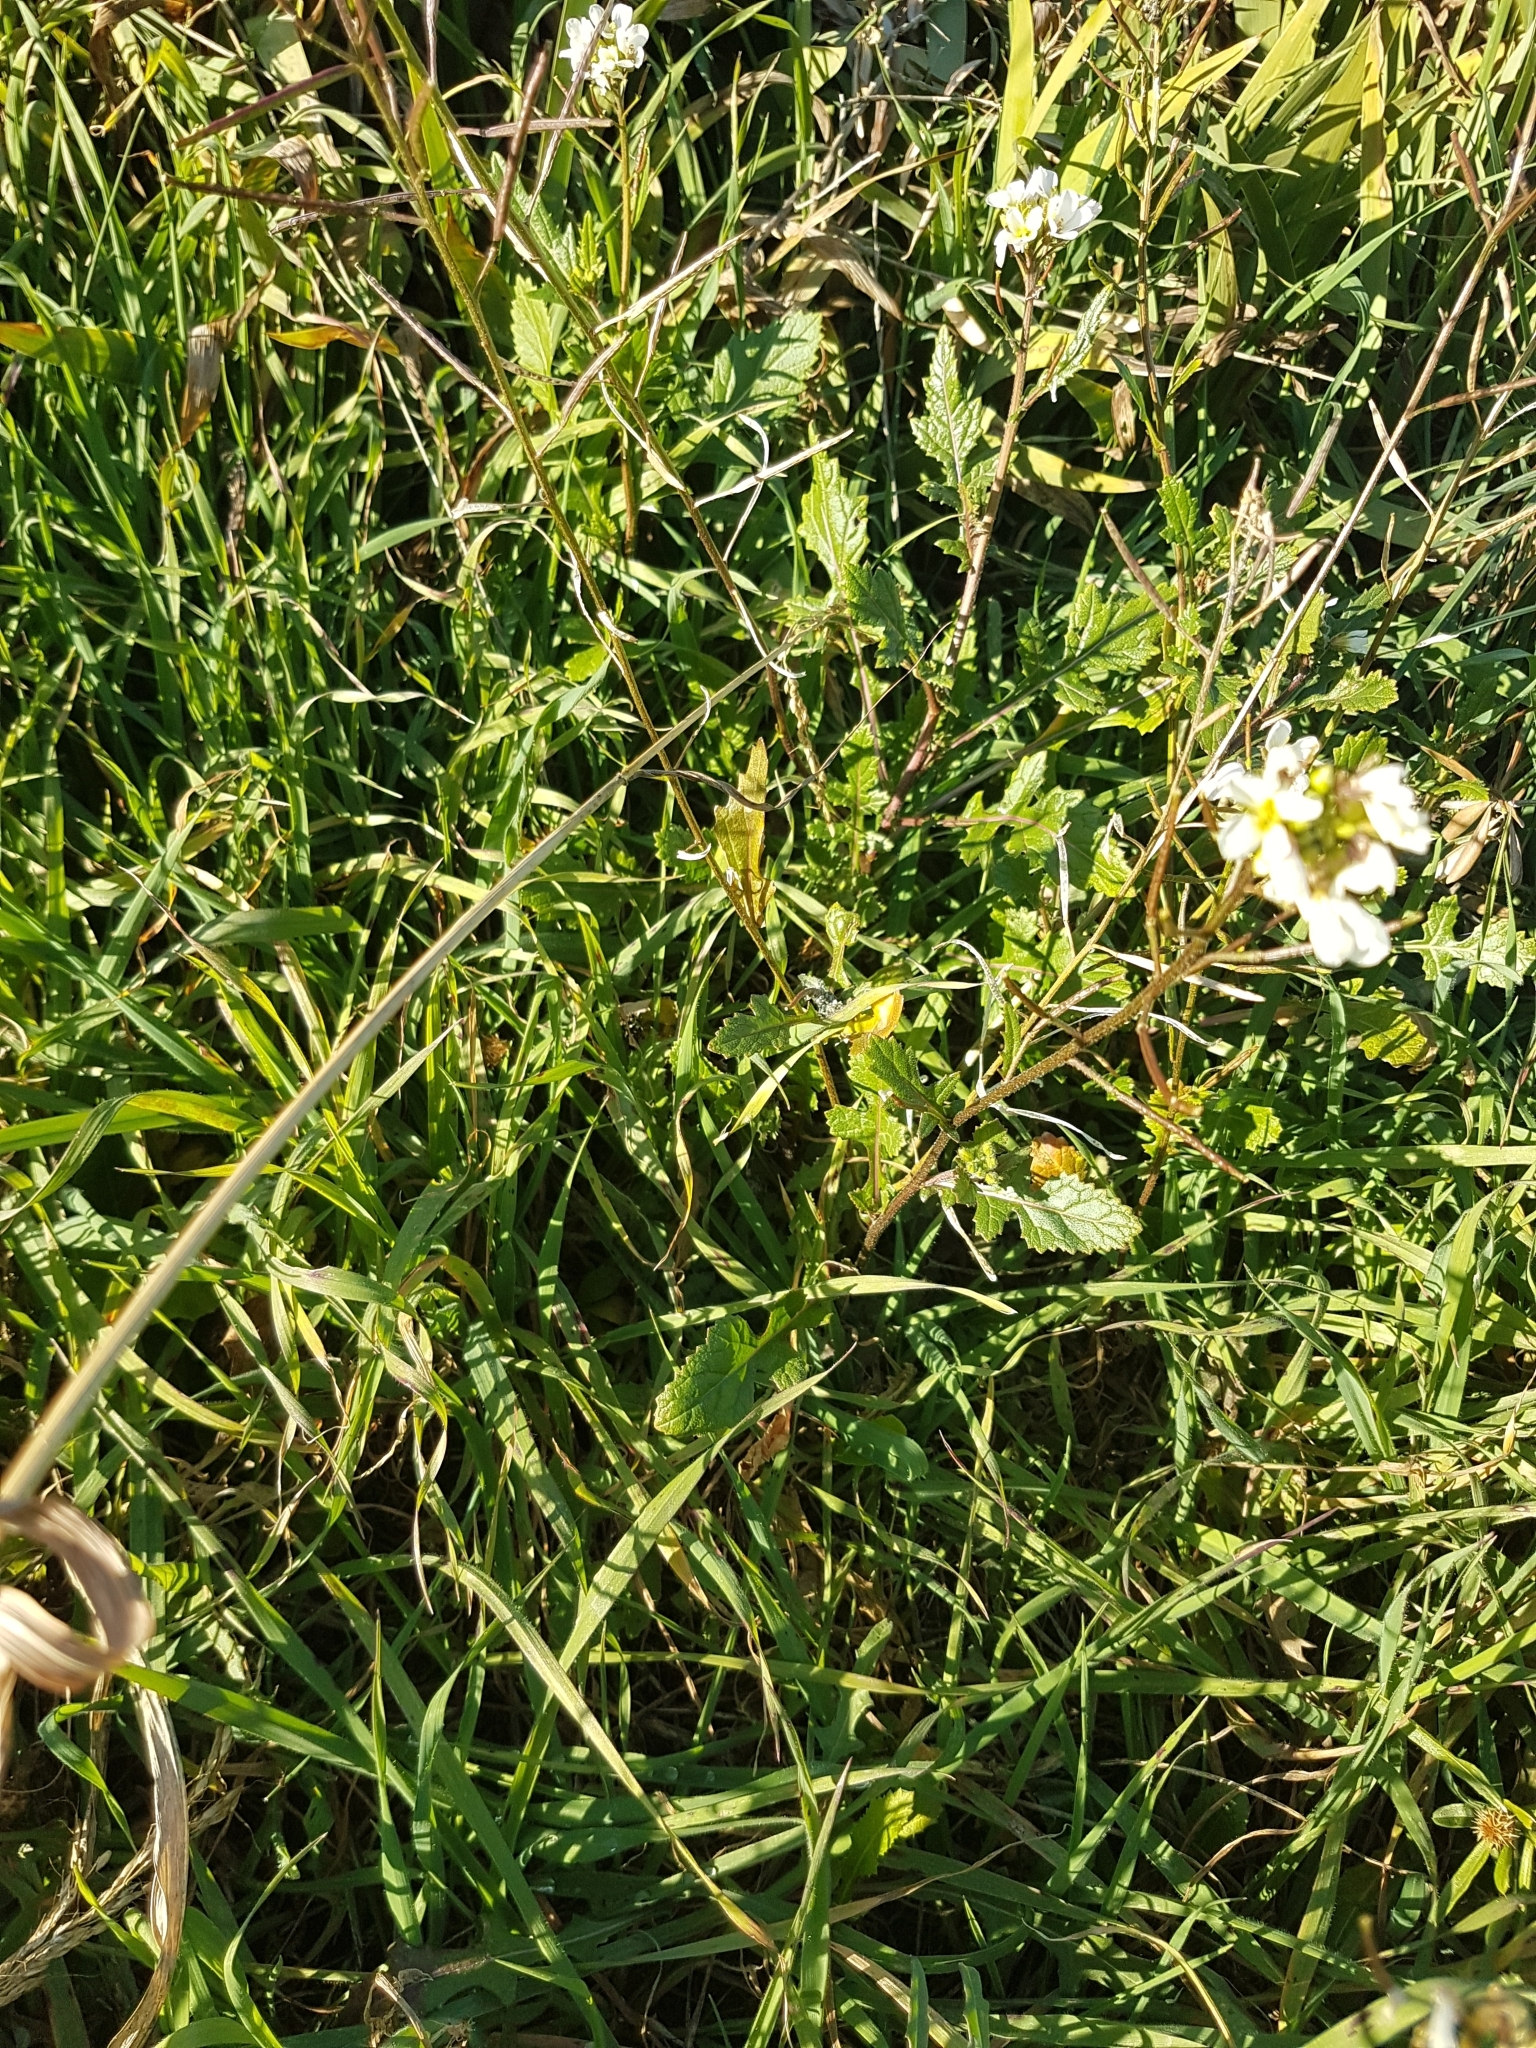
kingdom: Plantae
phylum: Tracheophyta
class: Magnoliopsida
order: Brassicales
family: Brassicaceae
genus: Diplotaxis
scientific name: Diplotaxis erucoides
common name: White rocket
